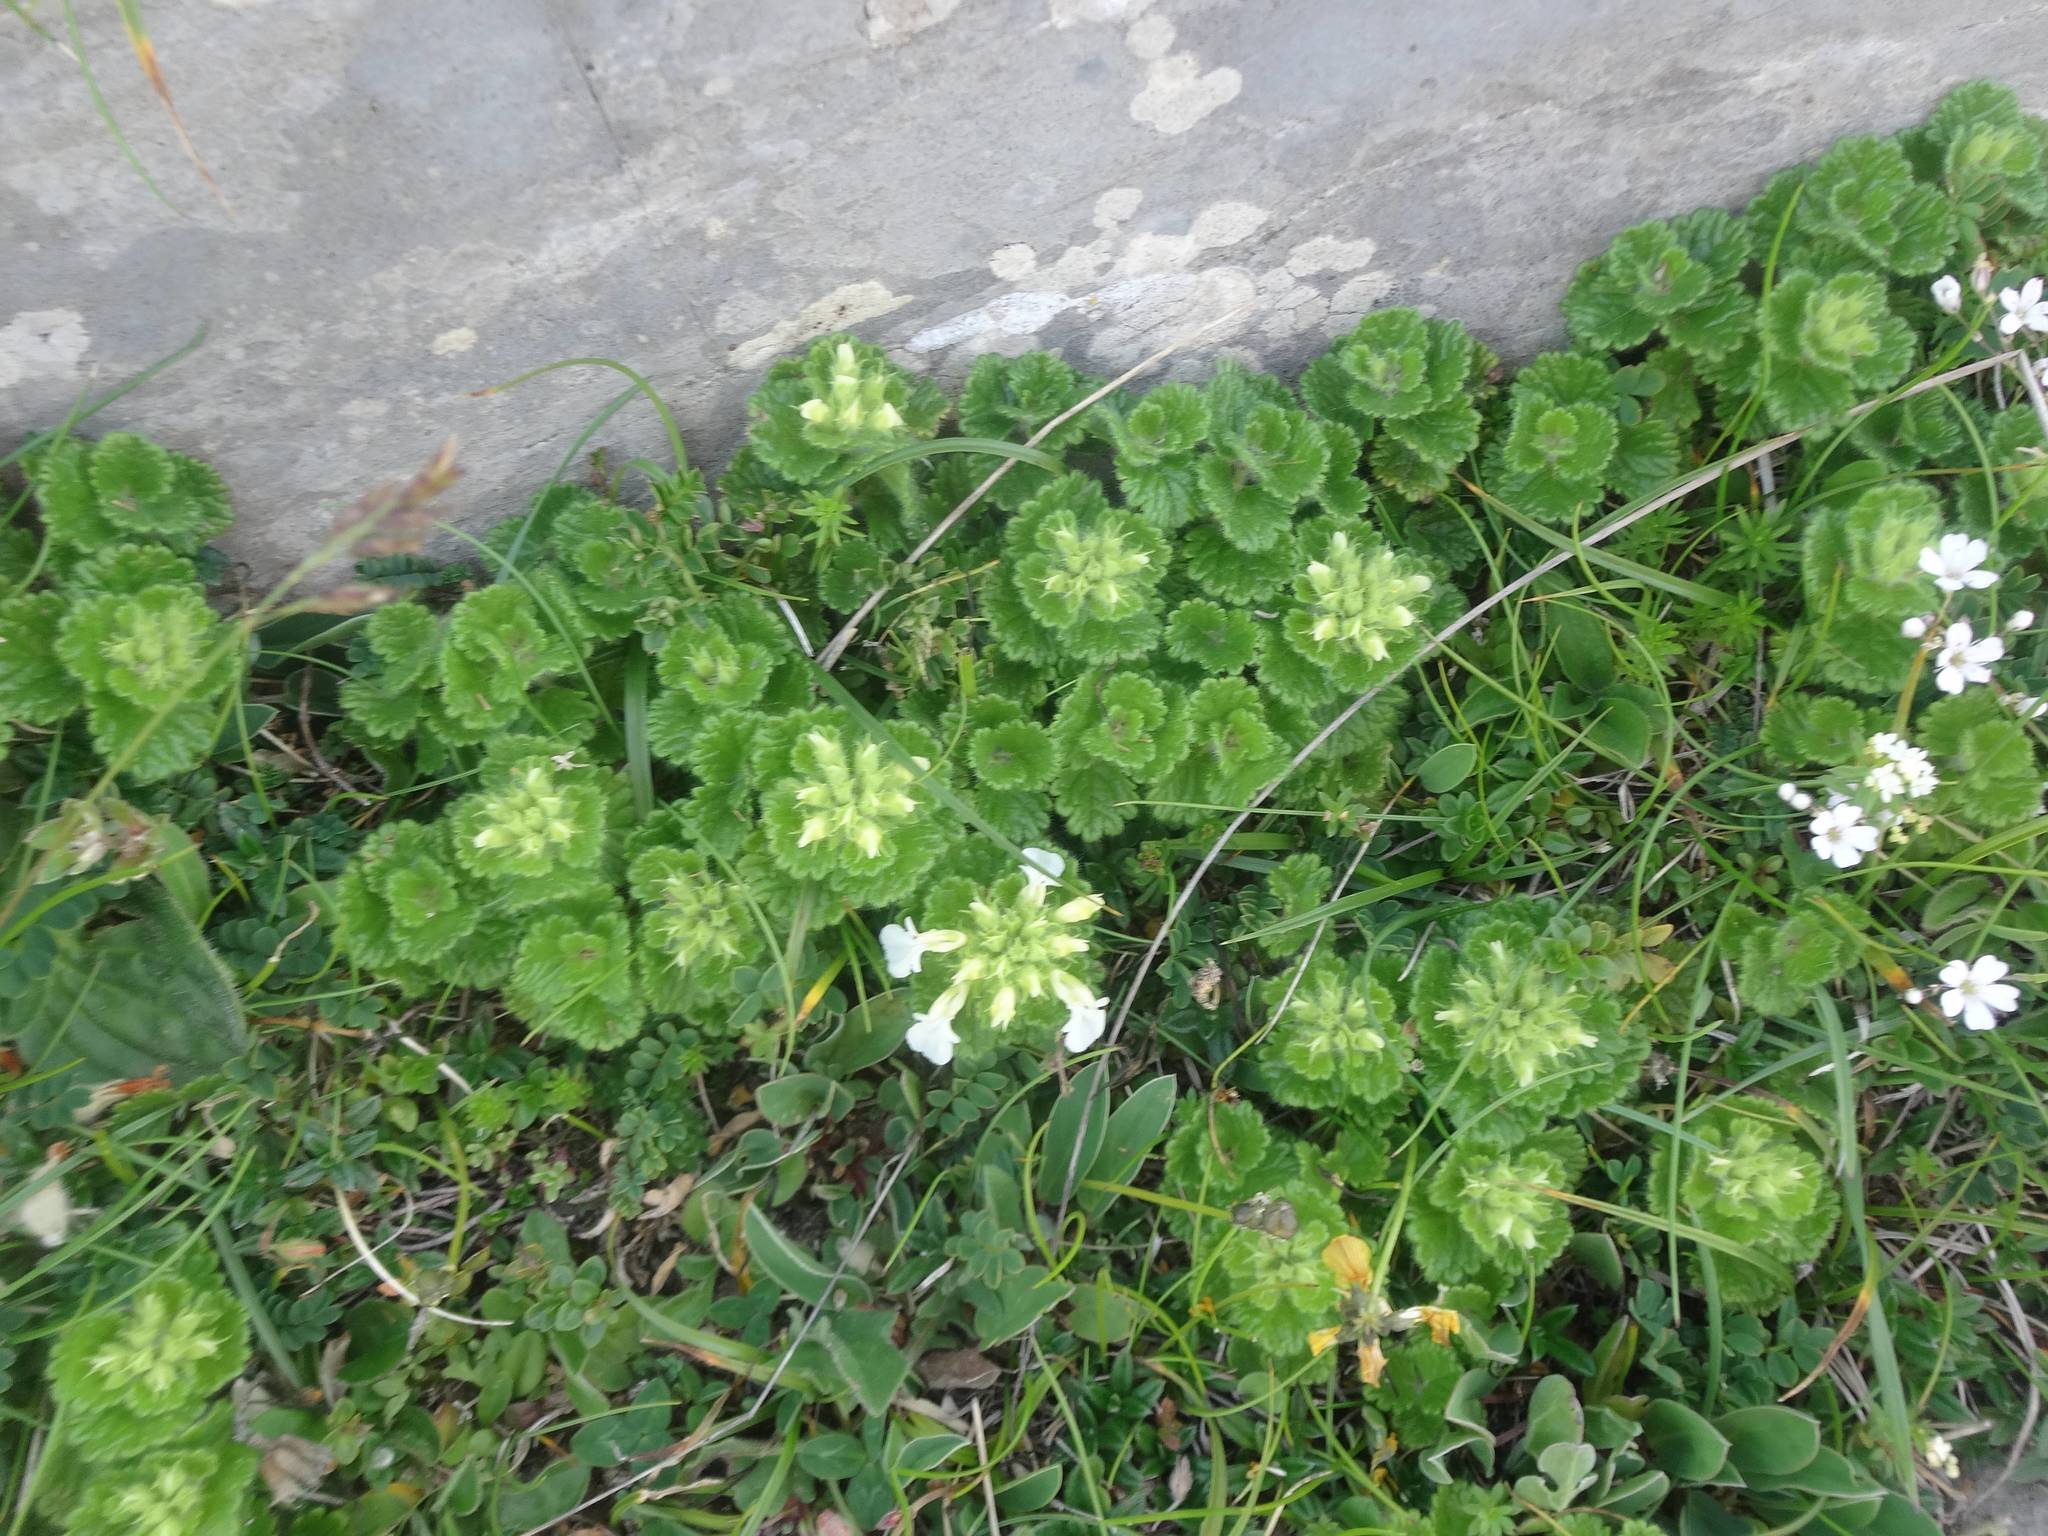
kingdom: Plantae
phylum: Tracheophyta
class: Magnoliopsida
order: Lamiales
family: Lamiaceae
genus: Teucrium
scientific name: Teucrium pyrenaicum
